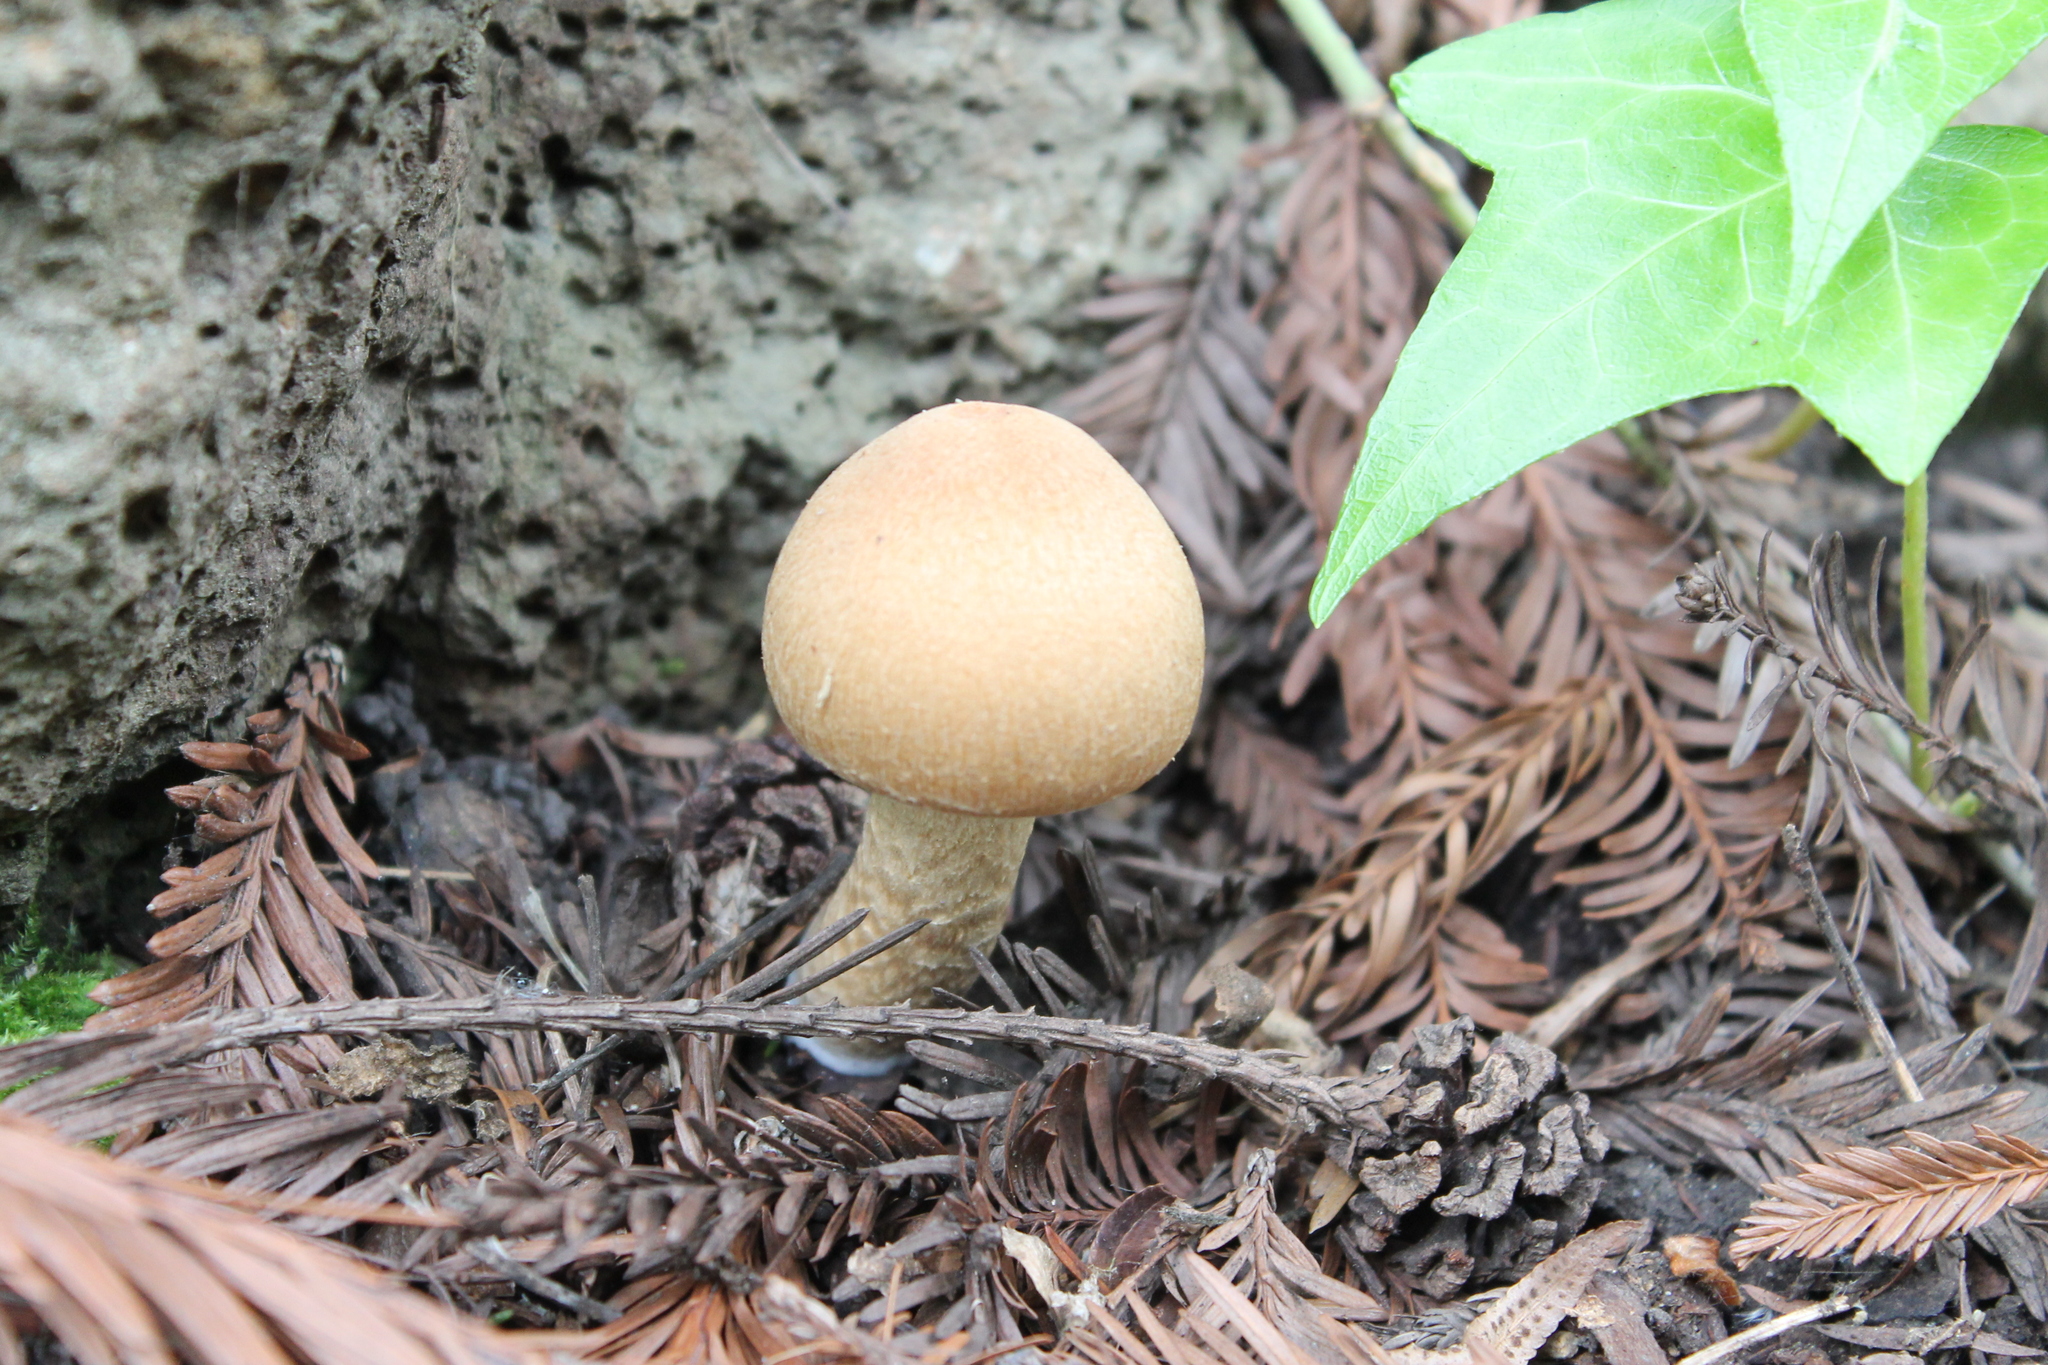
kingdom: Fungi
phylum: Basidiomycota
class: Agaricomycetes
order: Agaricales
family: Psathyrellaceae
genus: Candolleomyces
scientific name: Candolleomyces candolleanus
